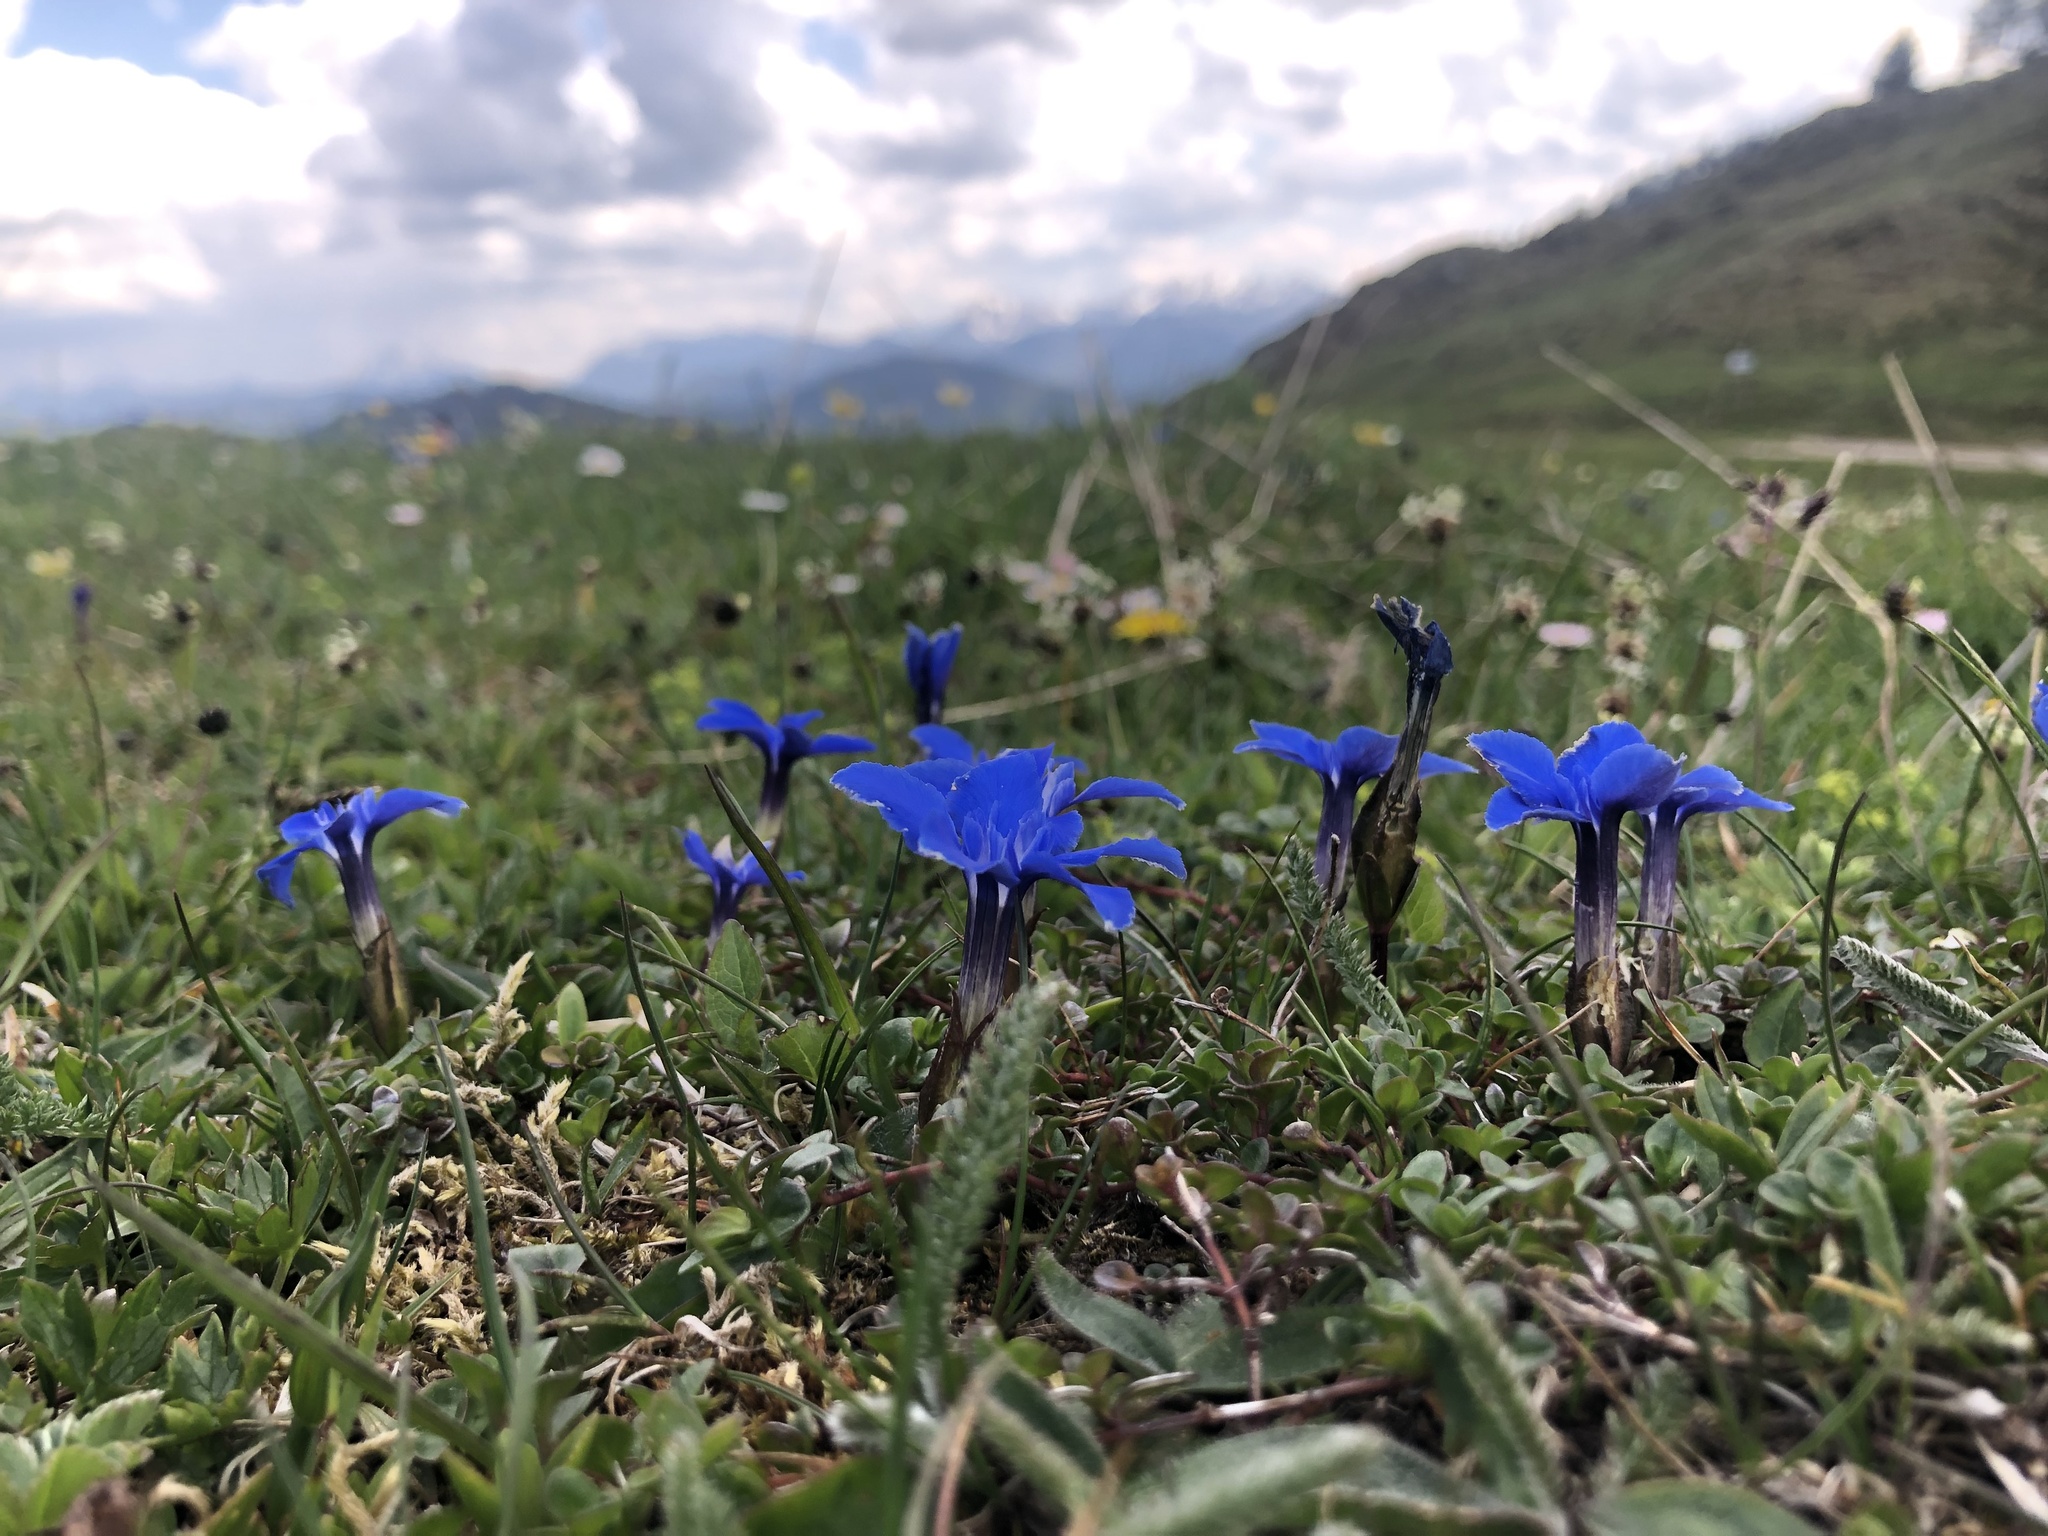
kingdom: Plantae
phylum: Tracheophyta
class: Magnoliopsida
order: Gentianales
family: Gentianaceae
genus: Gentiana
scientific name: Gentiana verna
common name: Spring gentian
